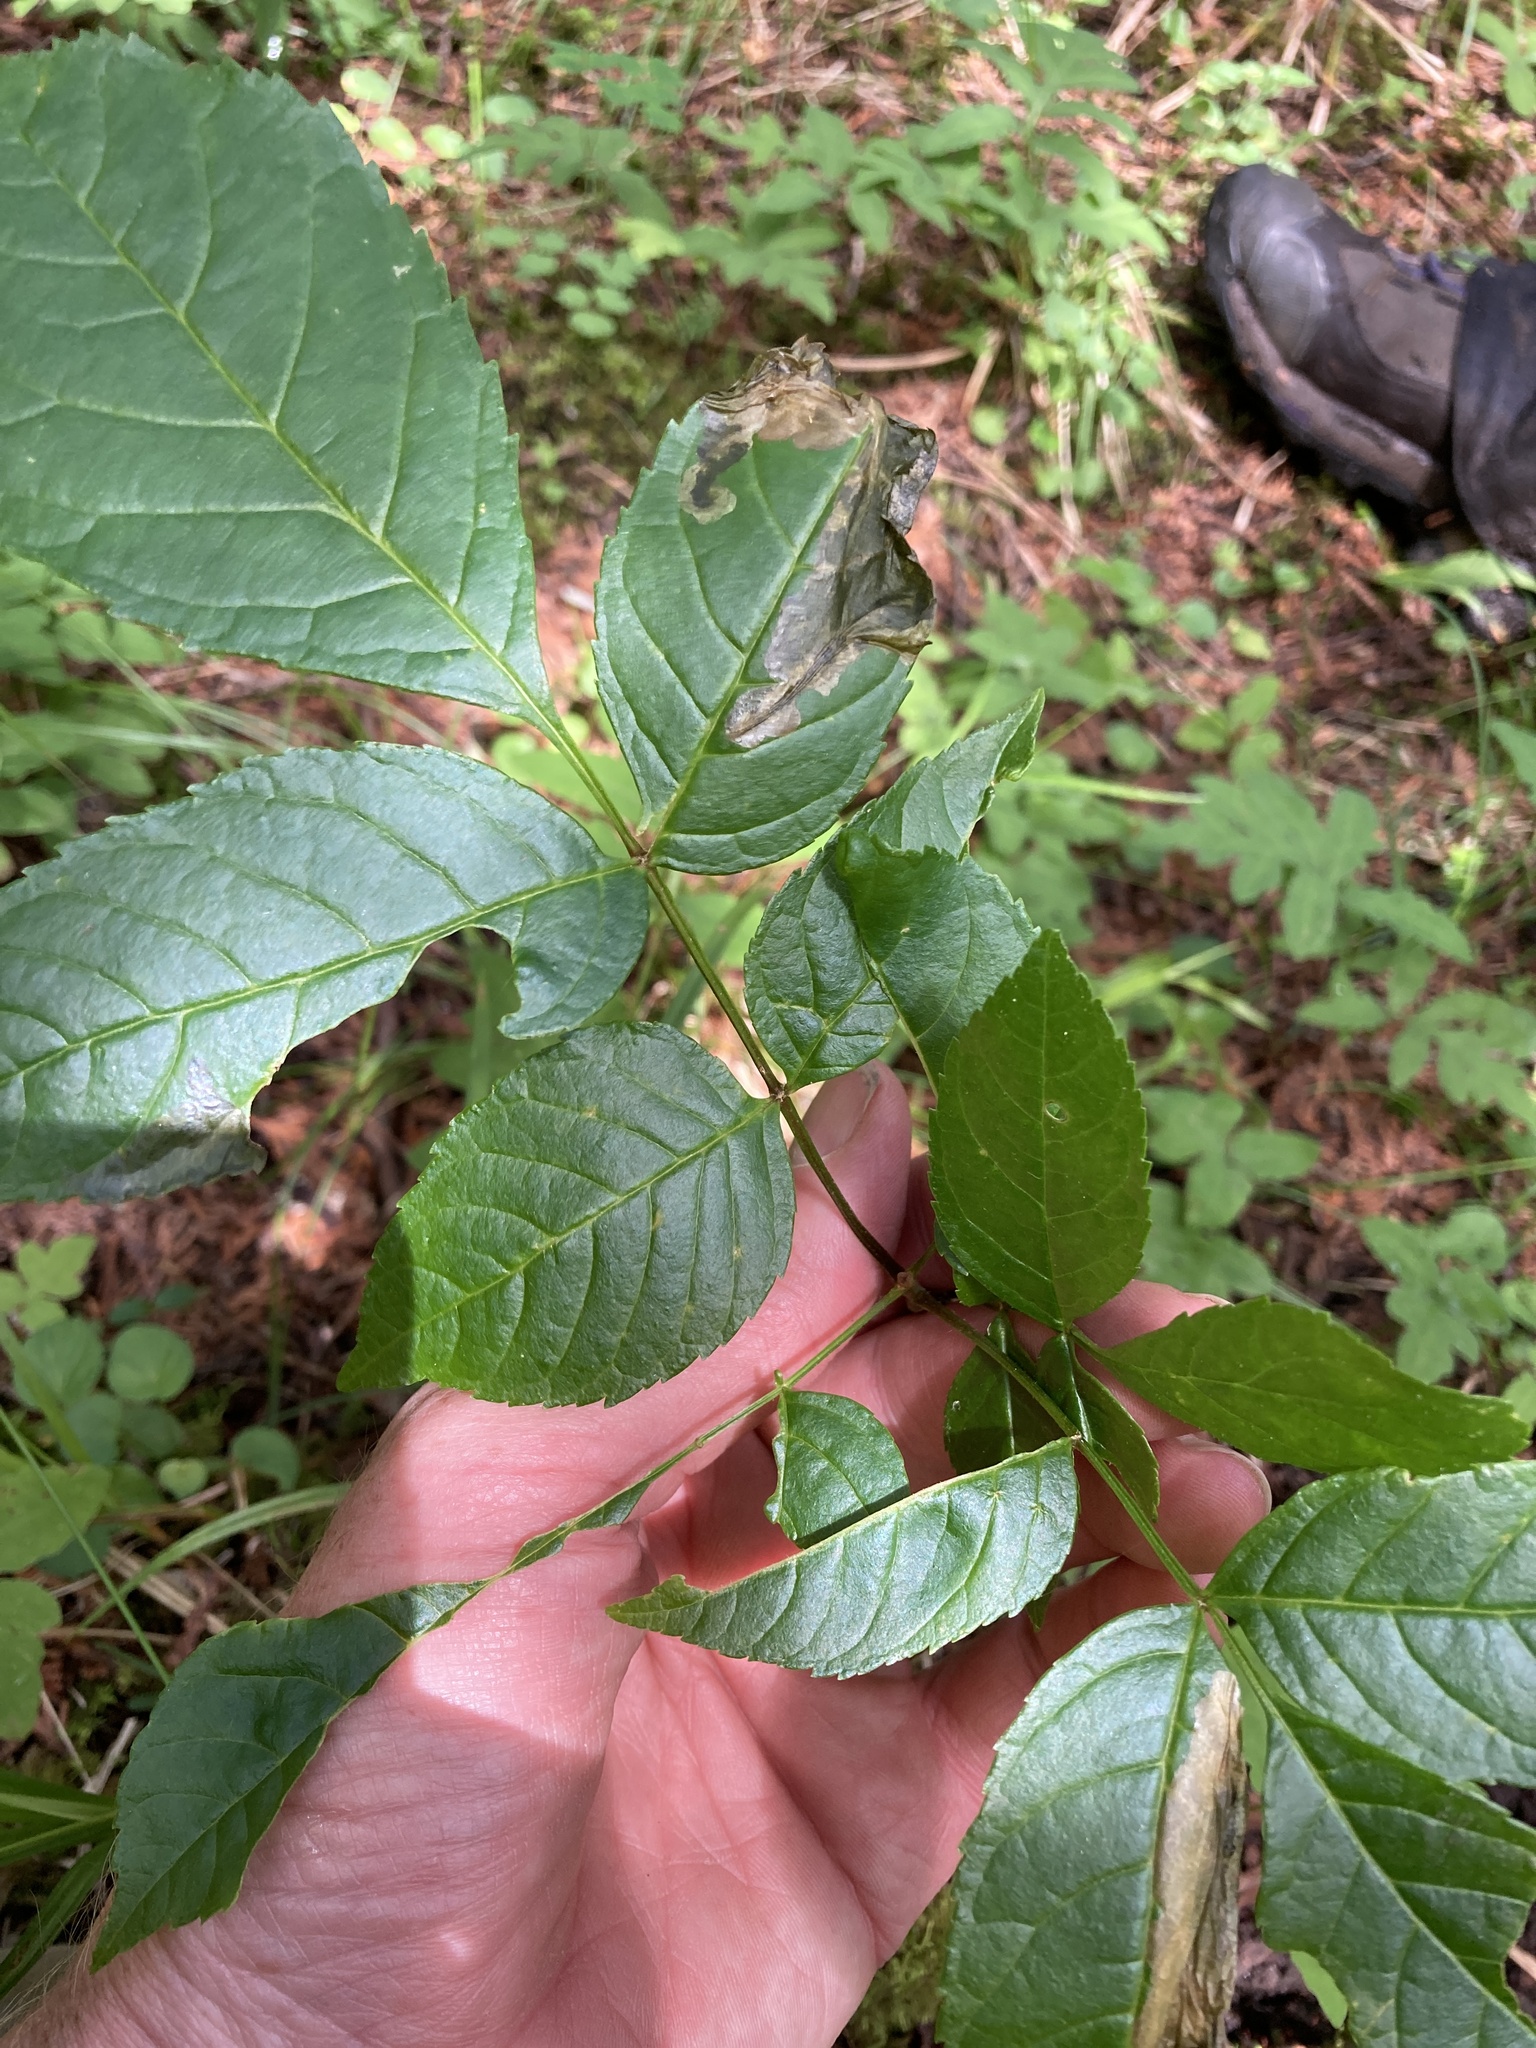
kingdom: Plantae
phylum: Tracheophyta
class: Magnoliopsida
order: Lamiales
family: Oleaceae
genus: Fraxinus
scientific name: Fraxinus nigra
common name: Black ash
